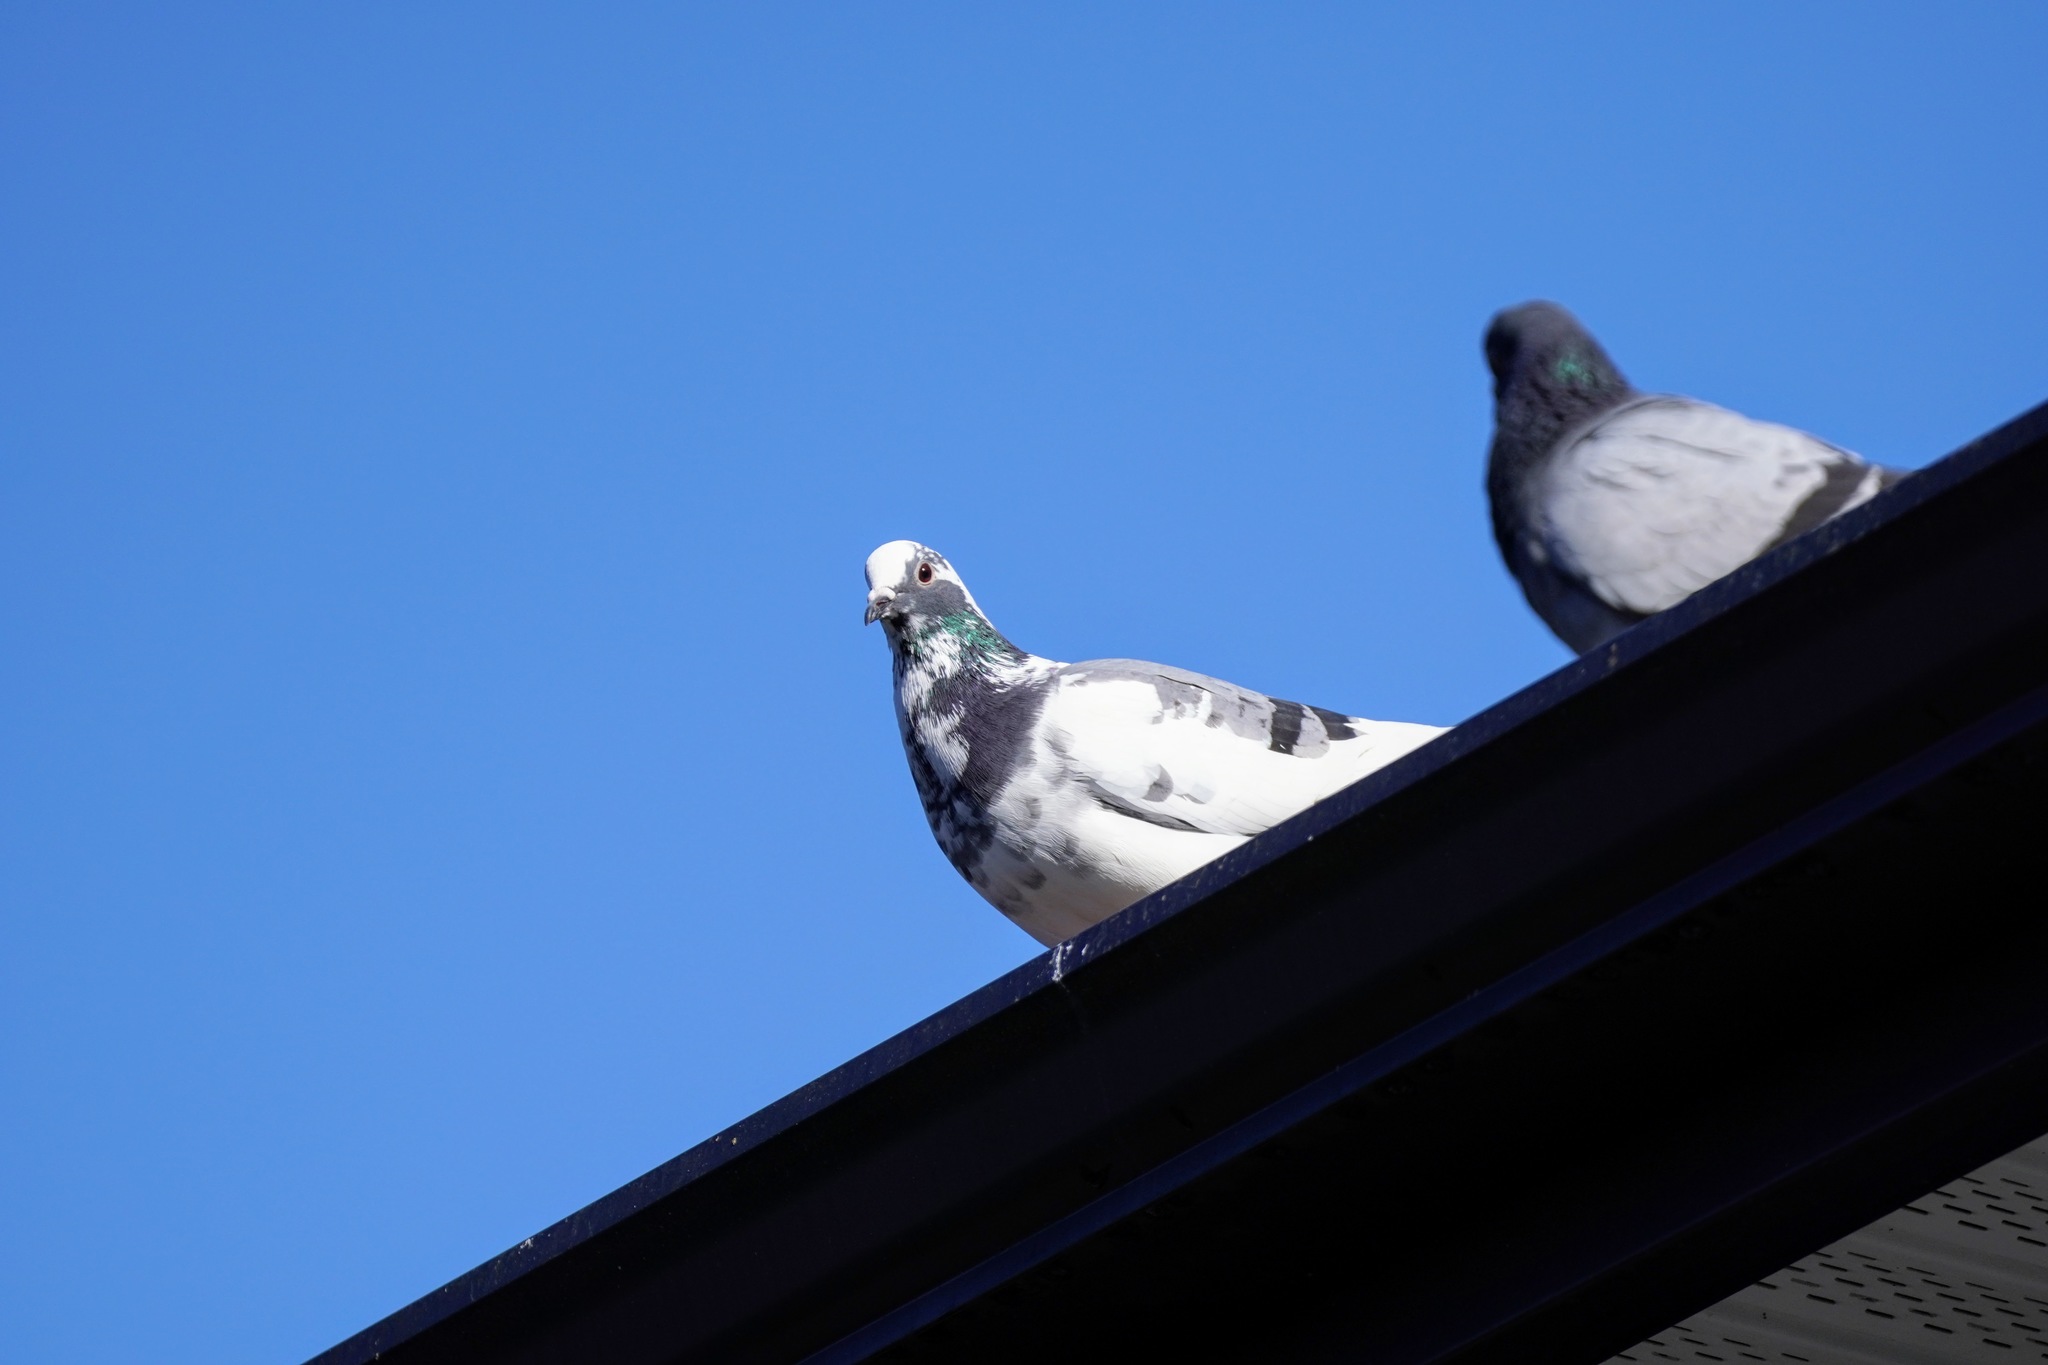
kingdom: Animalia
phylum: Chordata
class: Aves
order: Columbiformes
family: Columbidae
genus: Columba
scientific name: Columba livia
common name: Rock pigeon
